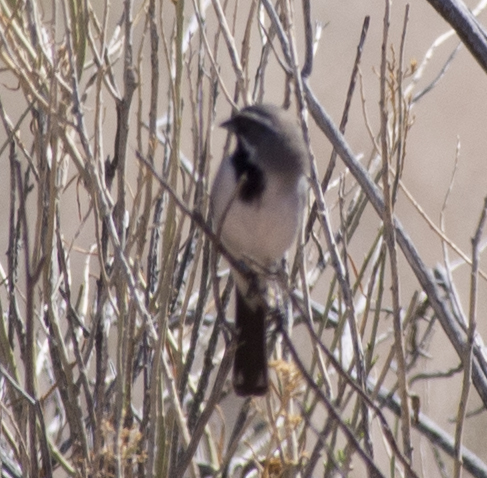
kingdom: Animalia
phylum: Chordata
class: Aves
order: Passeriformes
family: Passerellidae
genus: Amphispiza
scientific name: Amphispiza bilineata
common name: Black-throated sparrow
